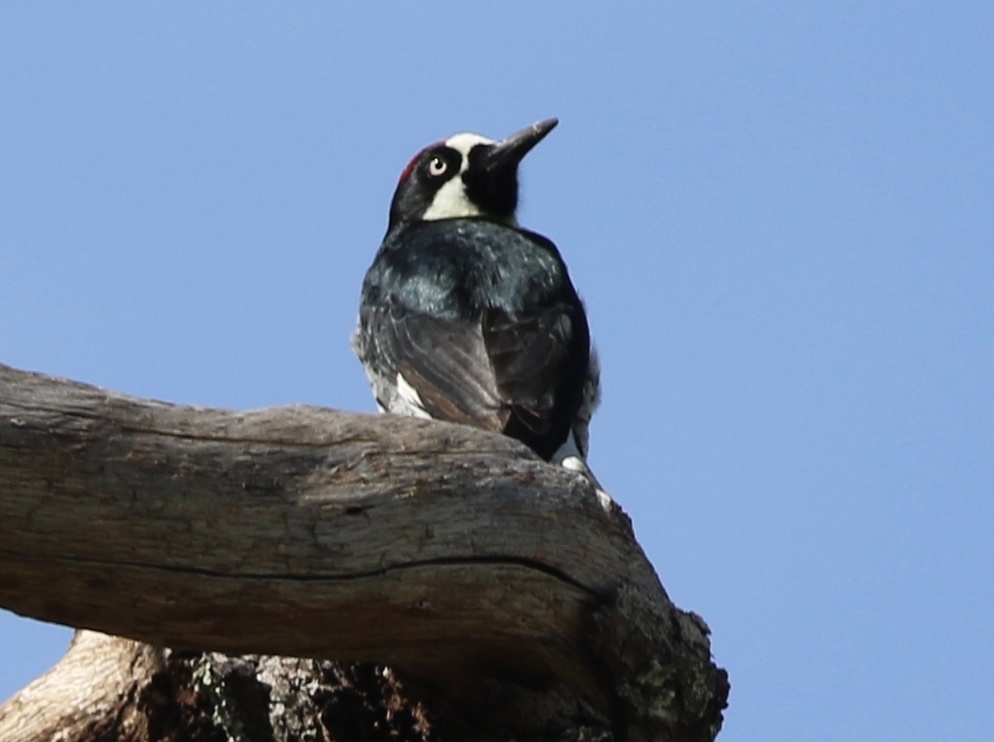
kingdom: Animalia
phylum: Chordata
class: Aves
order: Piciformes
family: Picidae
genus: Melanerpes
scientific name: Melanerpes formicivorus
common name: Acorn woodpecker
